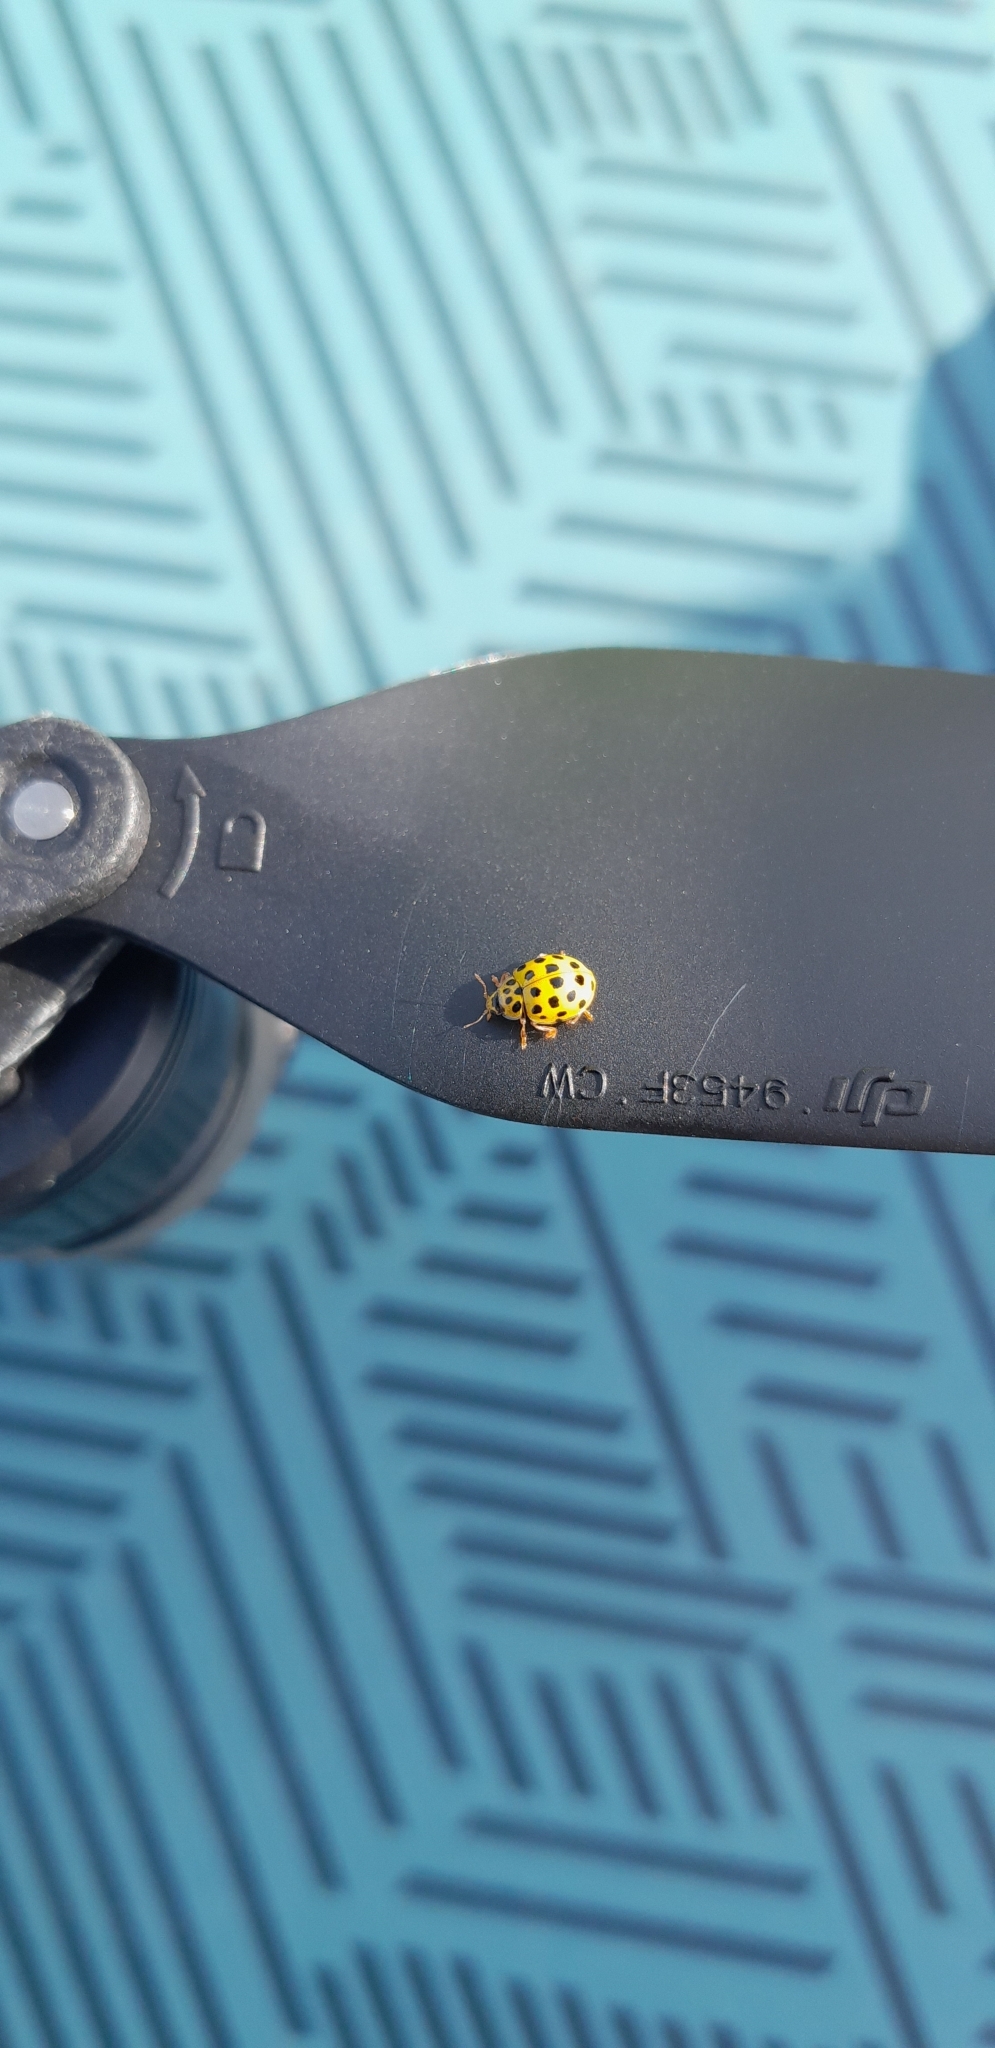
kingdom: Animalia
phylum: Arthropoda
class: Insecta
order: Coleoptera
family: Coccinellidae
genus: Psyllobora
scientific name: Psyllobora vigintiduopunctata
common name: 22-spot ladybird
